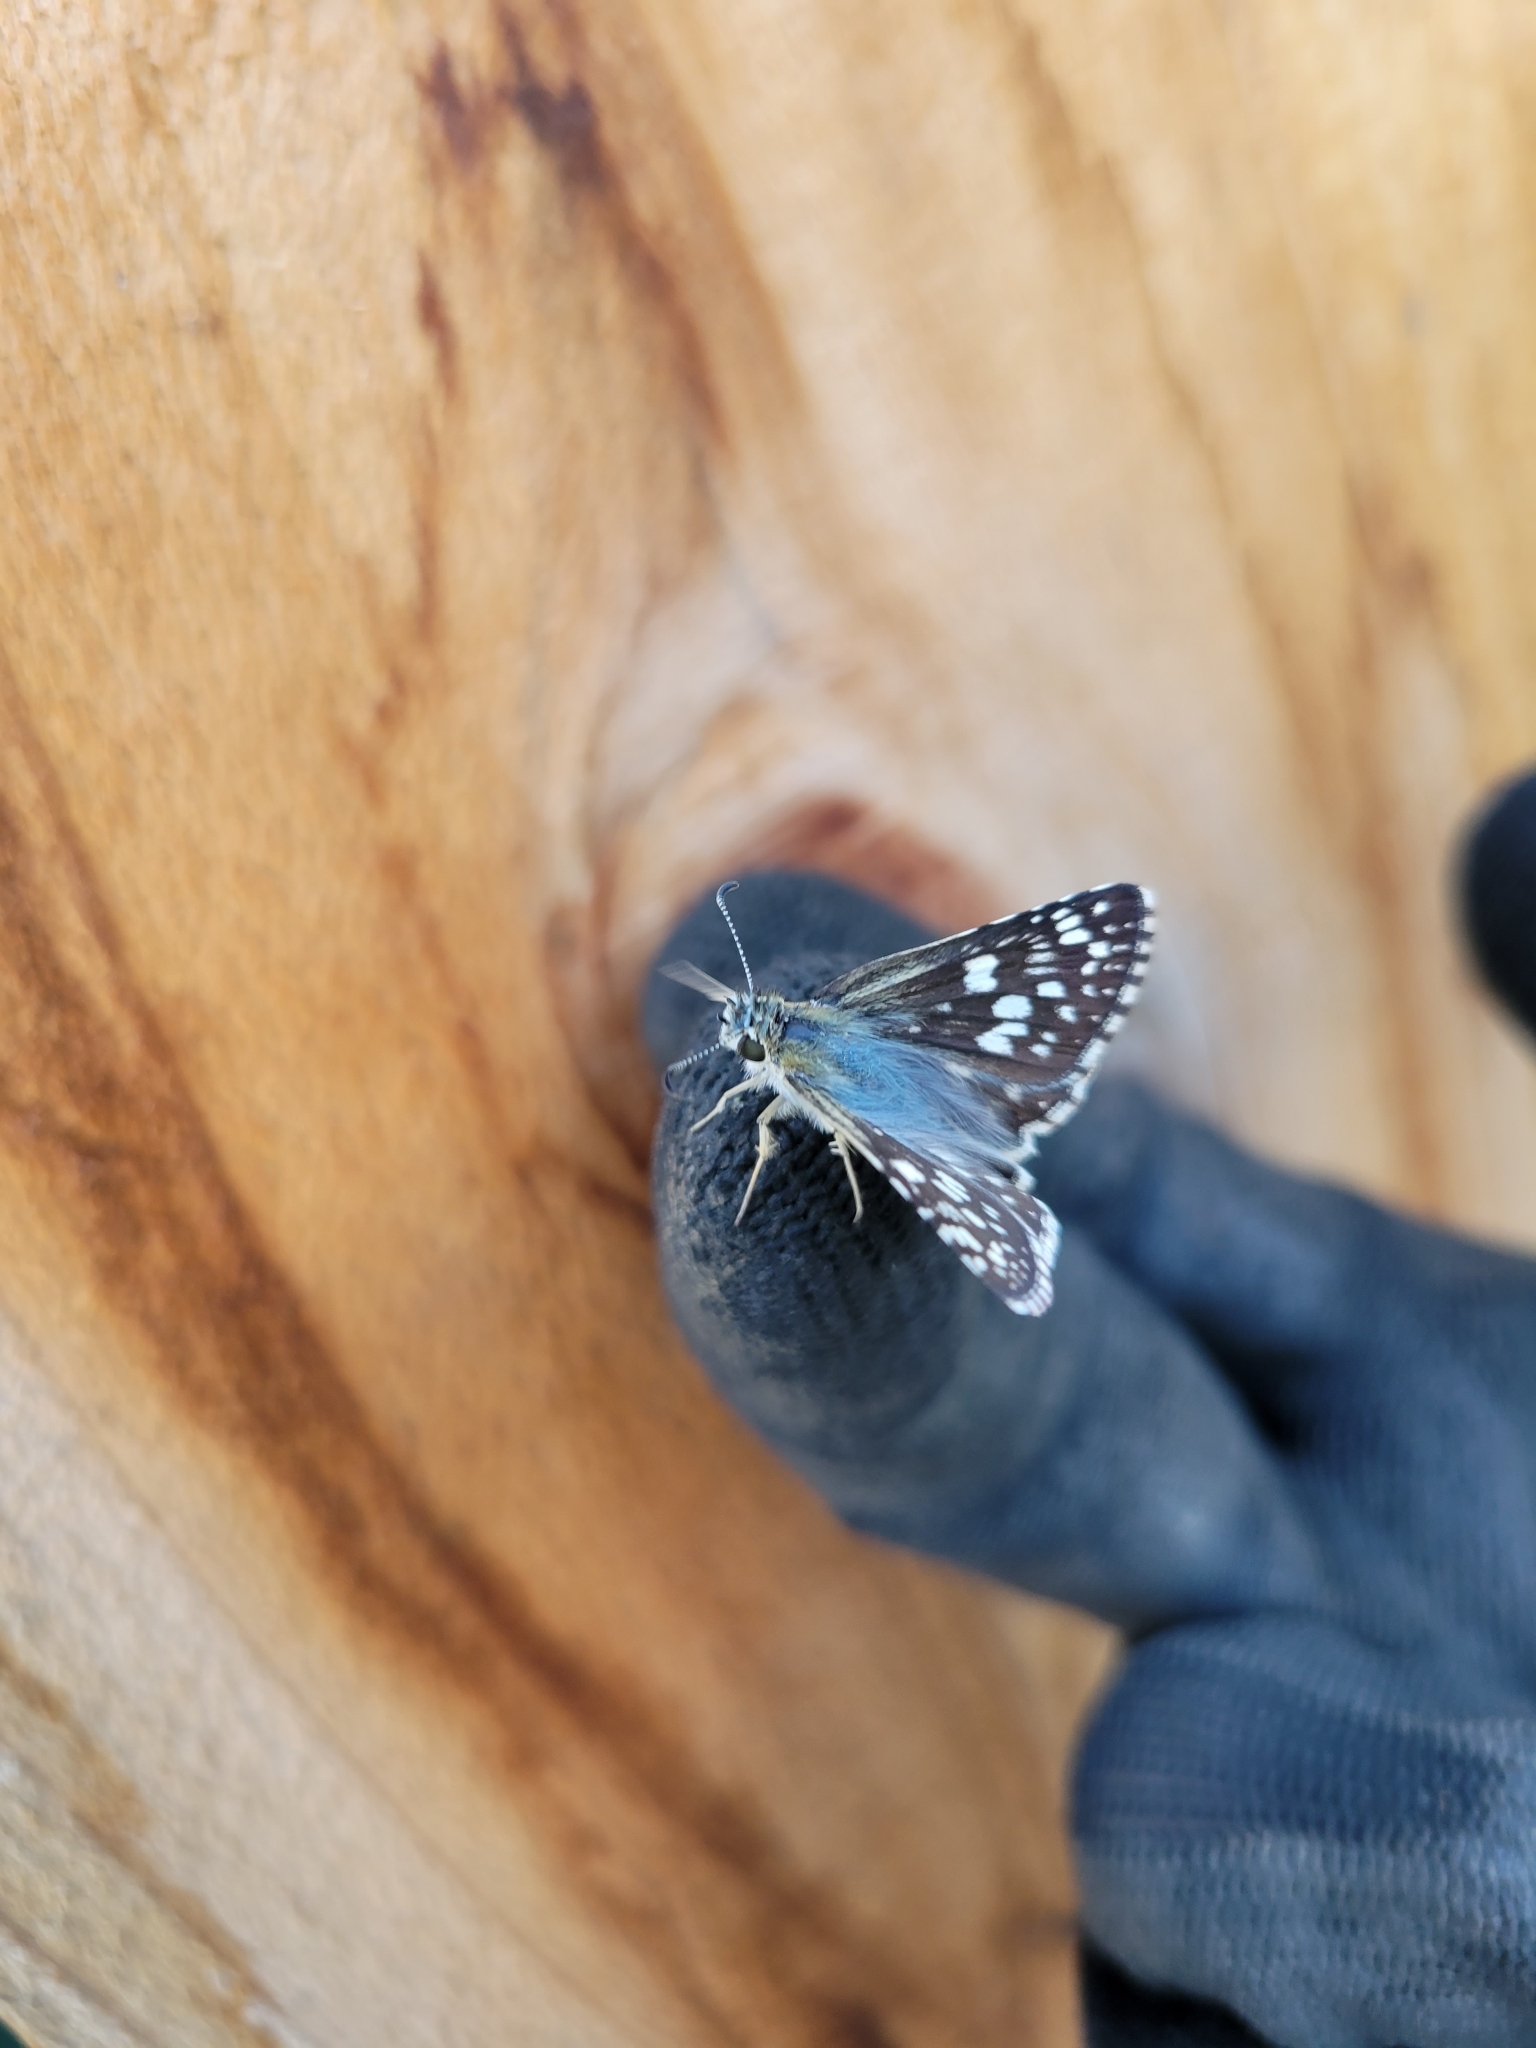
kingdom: Animalia
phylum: Arthropoda
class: Insecta
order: Lepidoptera
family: Hesperiidae
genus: Burnsius
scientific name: Burnsius communis
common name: Common checkered-skipper
